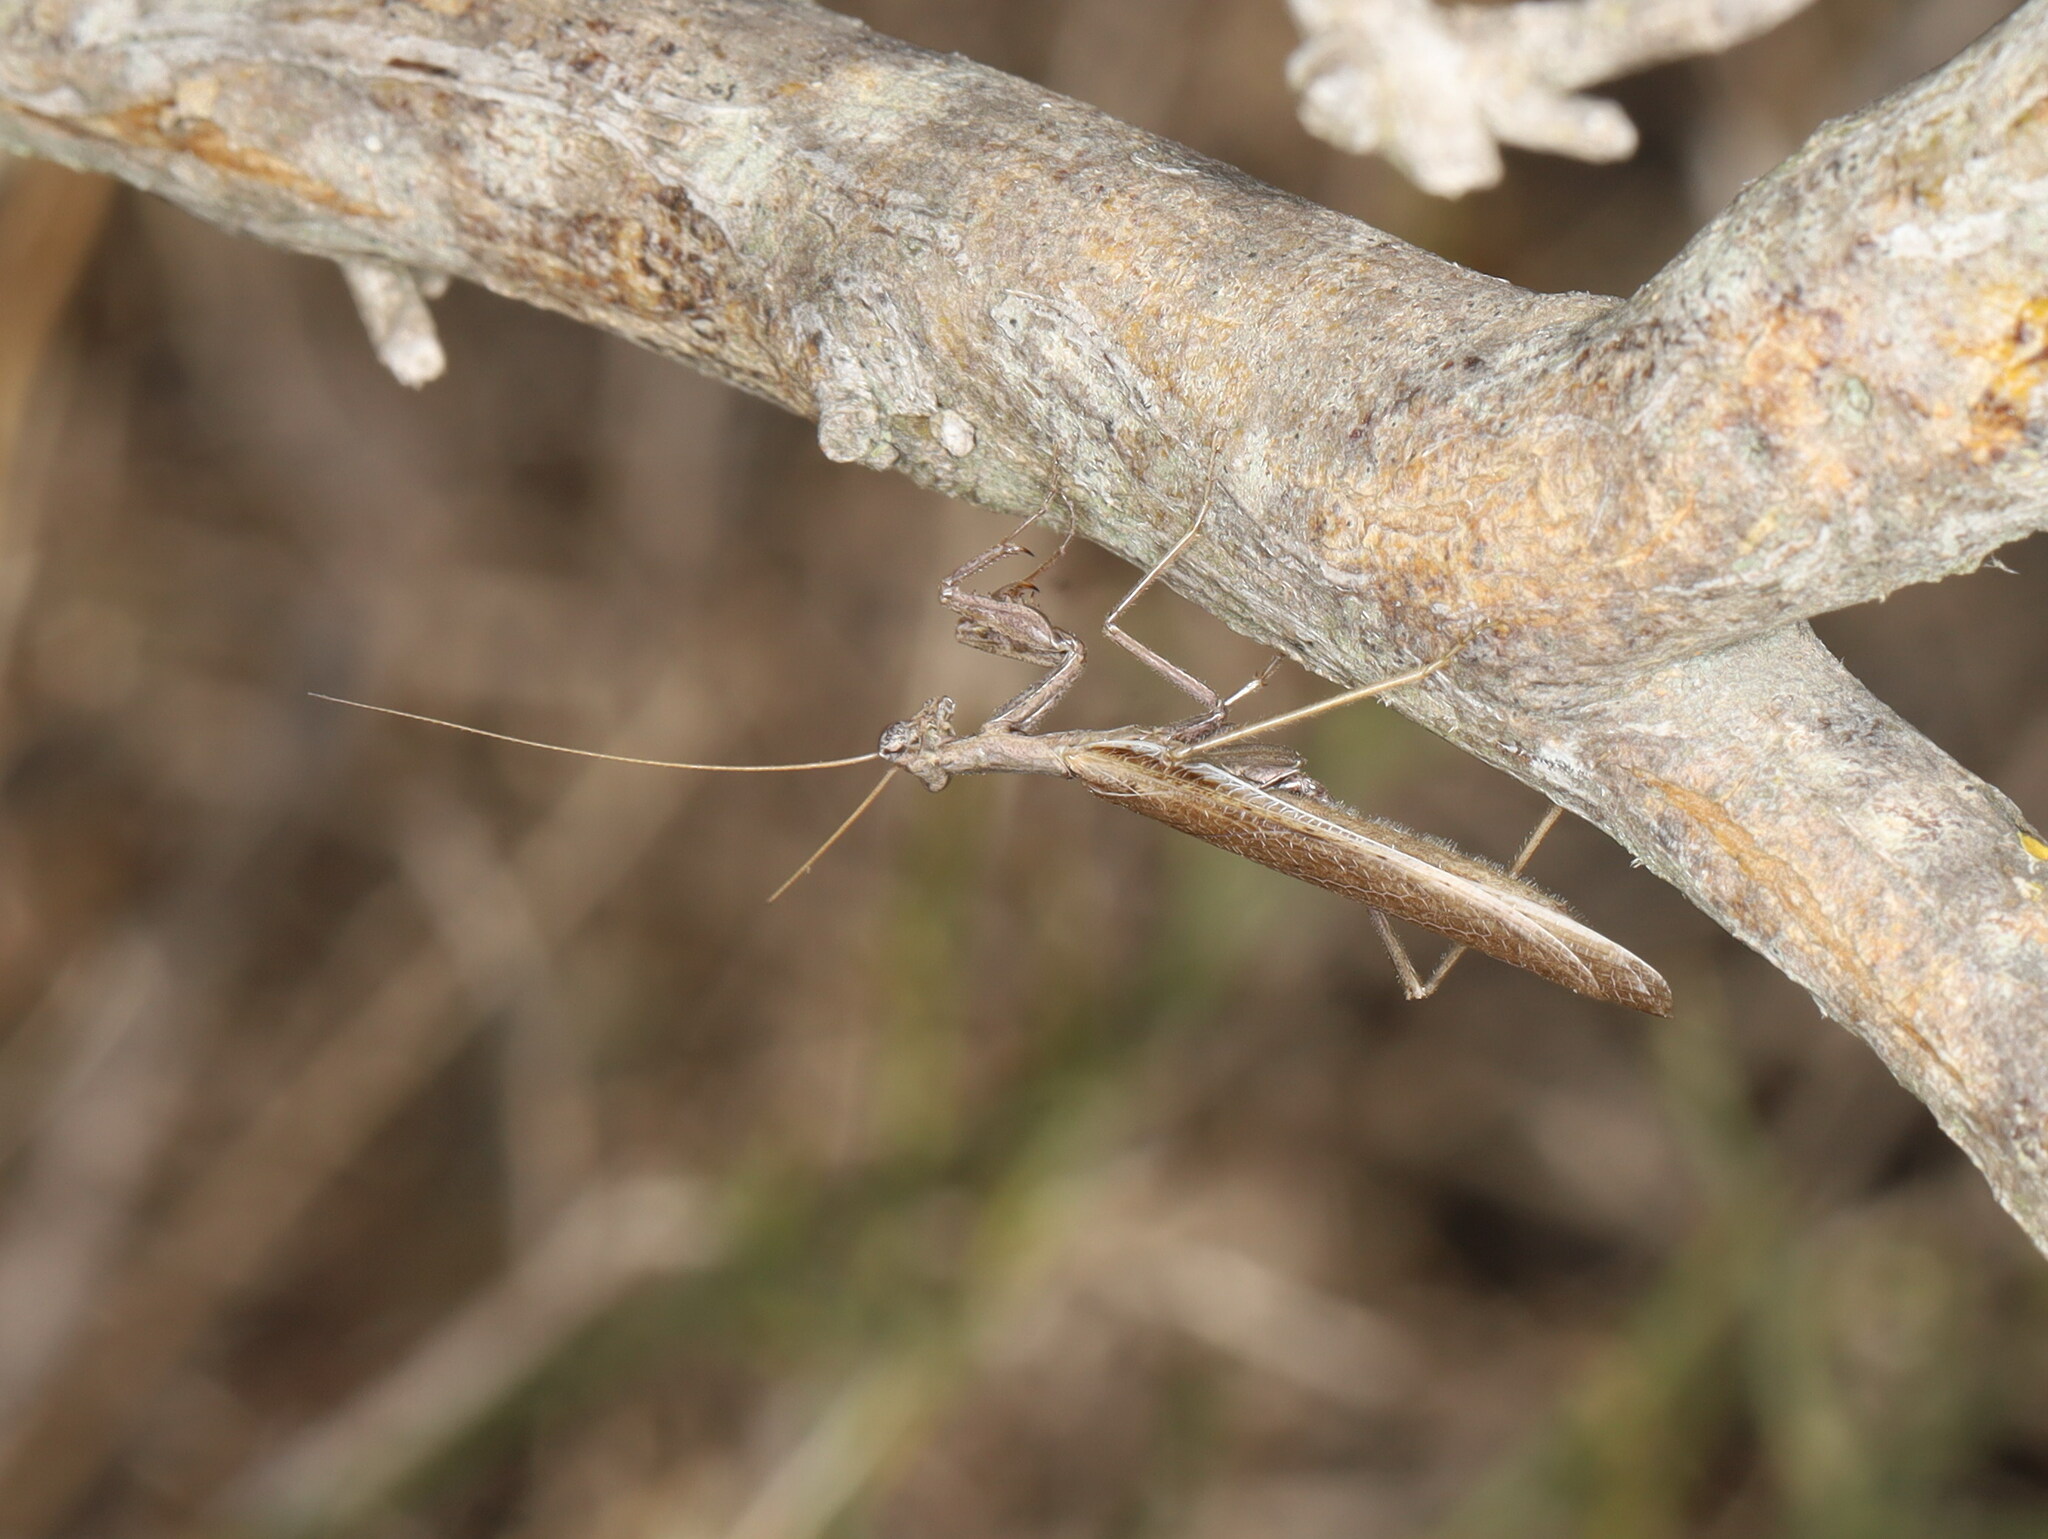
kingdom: Animalia
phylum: Arthropoda
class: Insecta
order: Mantodea
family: Amelidae
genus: Ameles
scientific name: Ameles decolor
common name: Dwarf mantis
